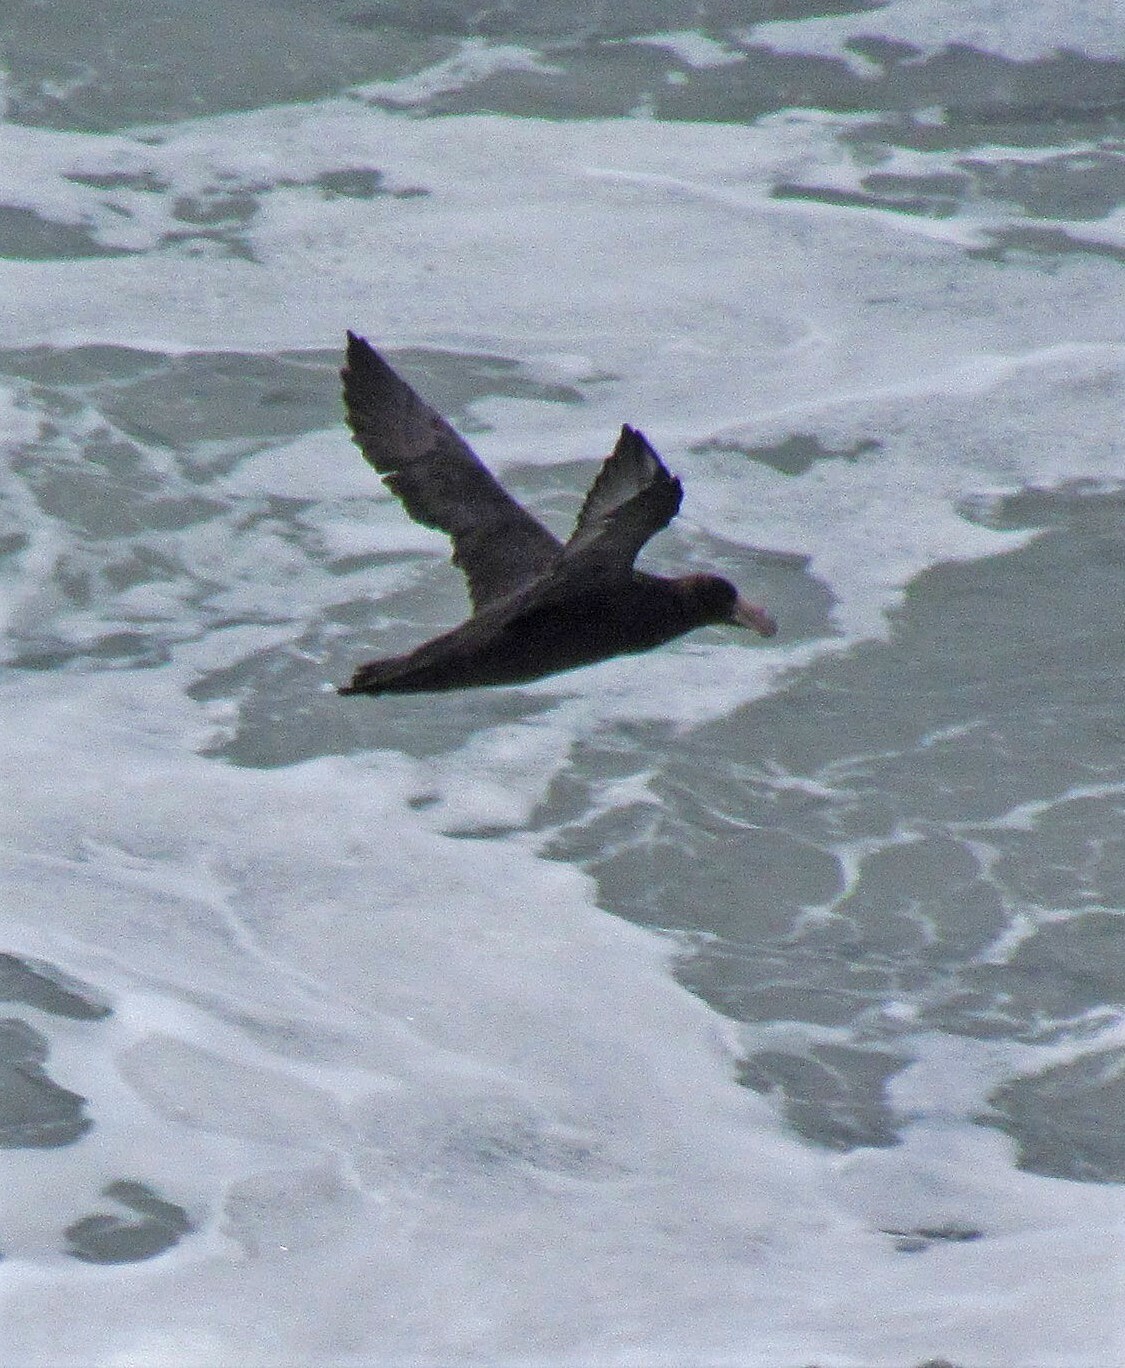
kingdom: Animalia
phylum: Chordata
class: Aves
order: Procellariiformes
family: Procellariidae
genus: Macronectes
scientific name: Macronectes giganteus
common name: Southern giant petrel
